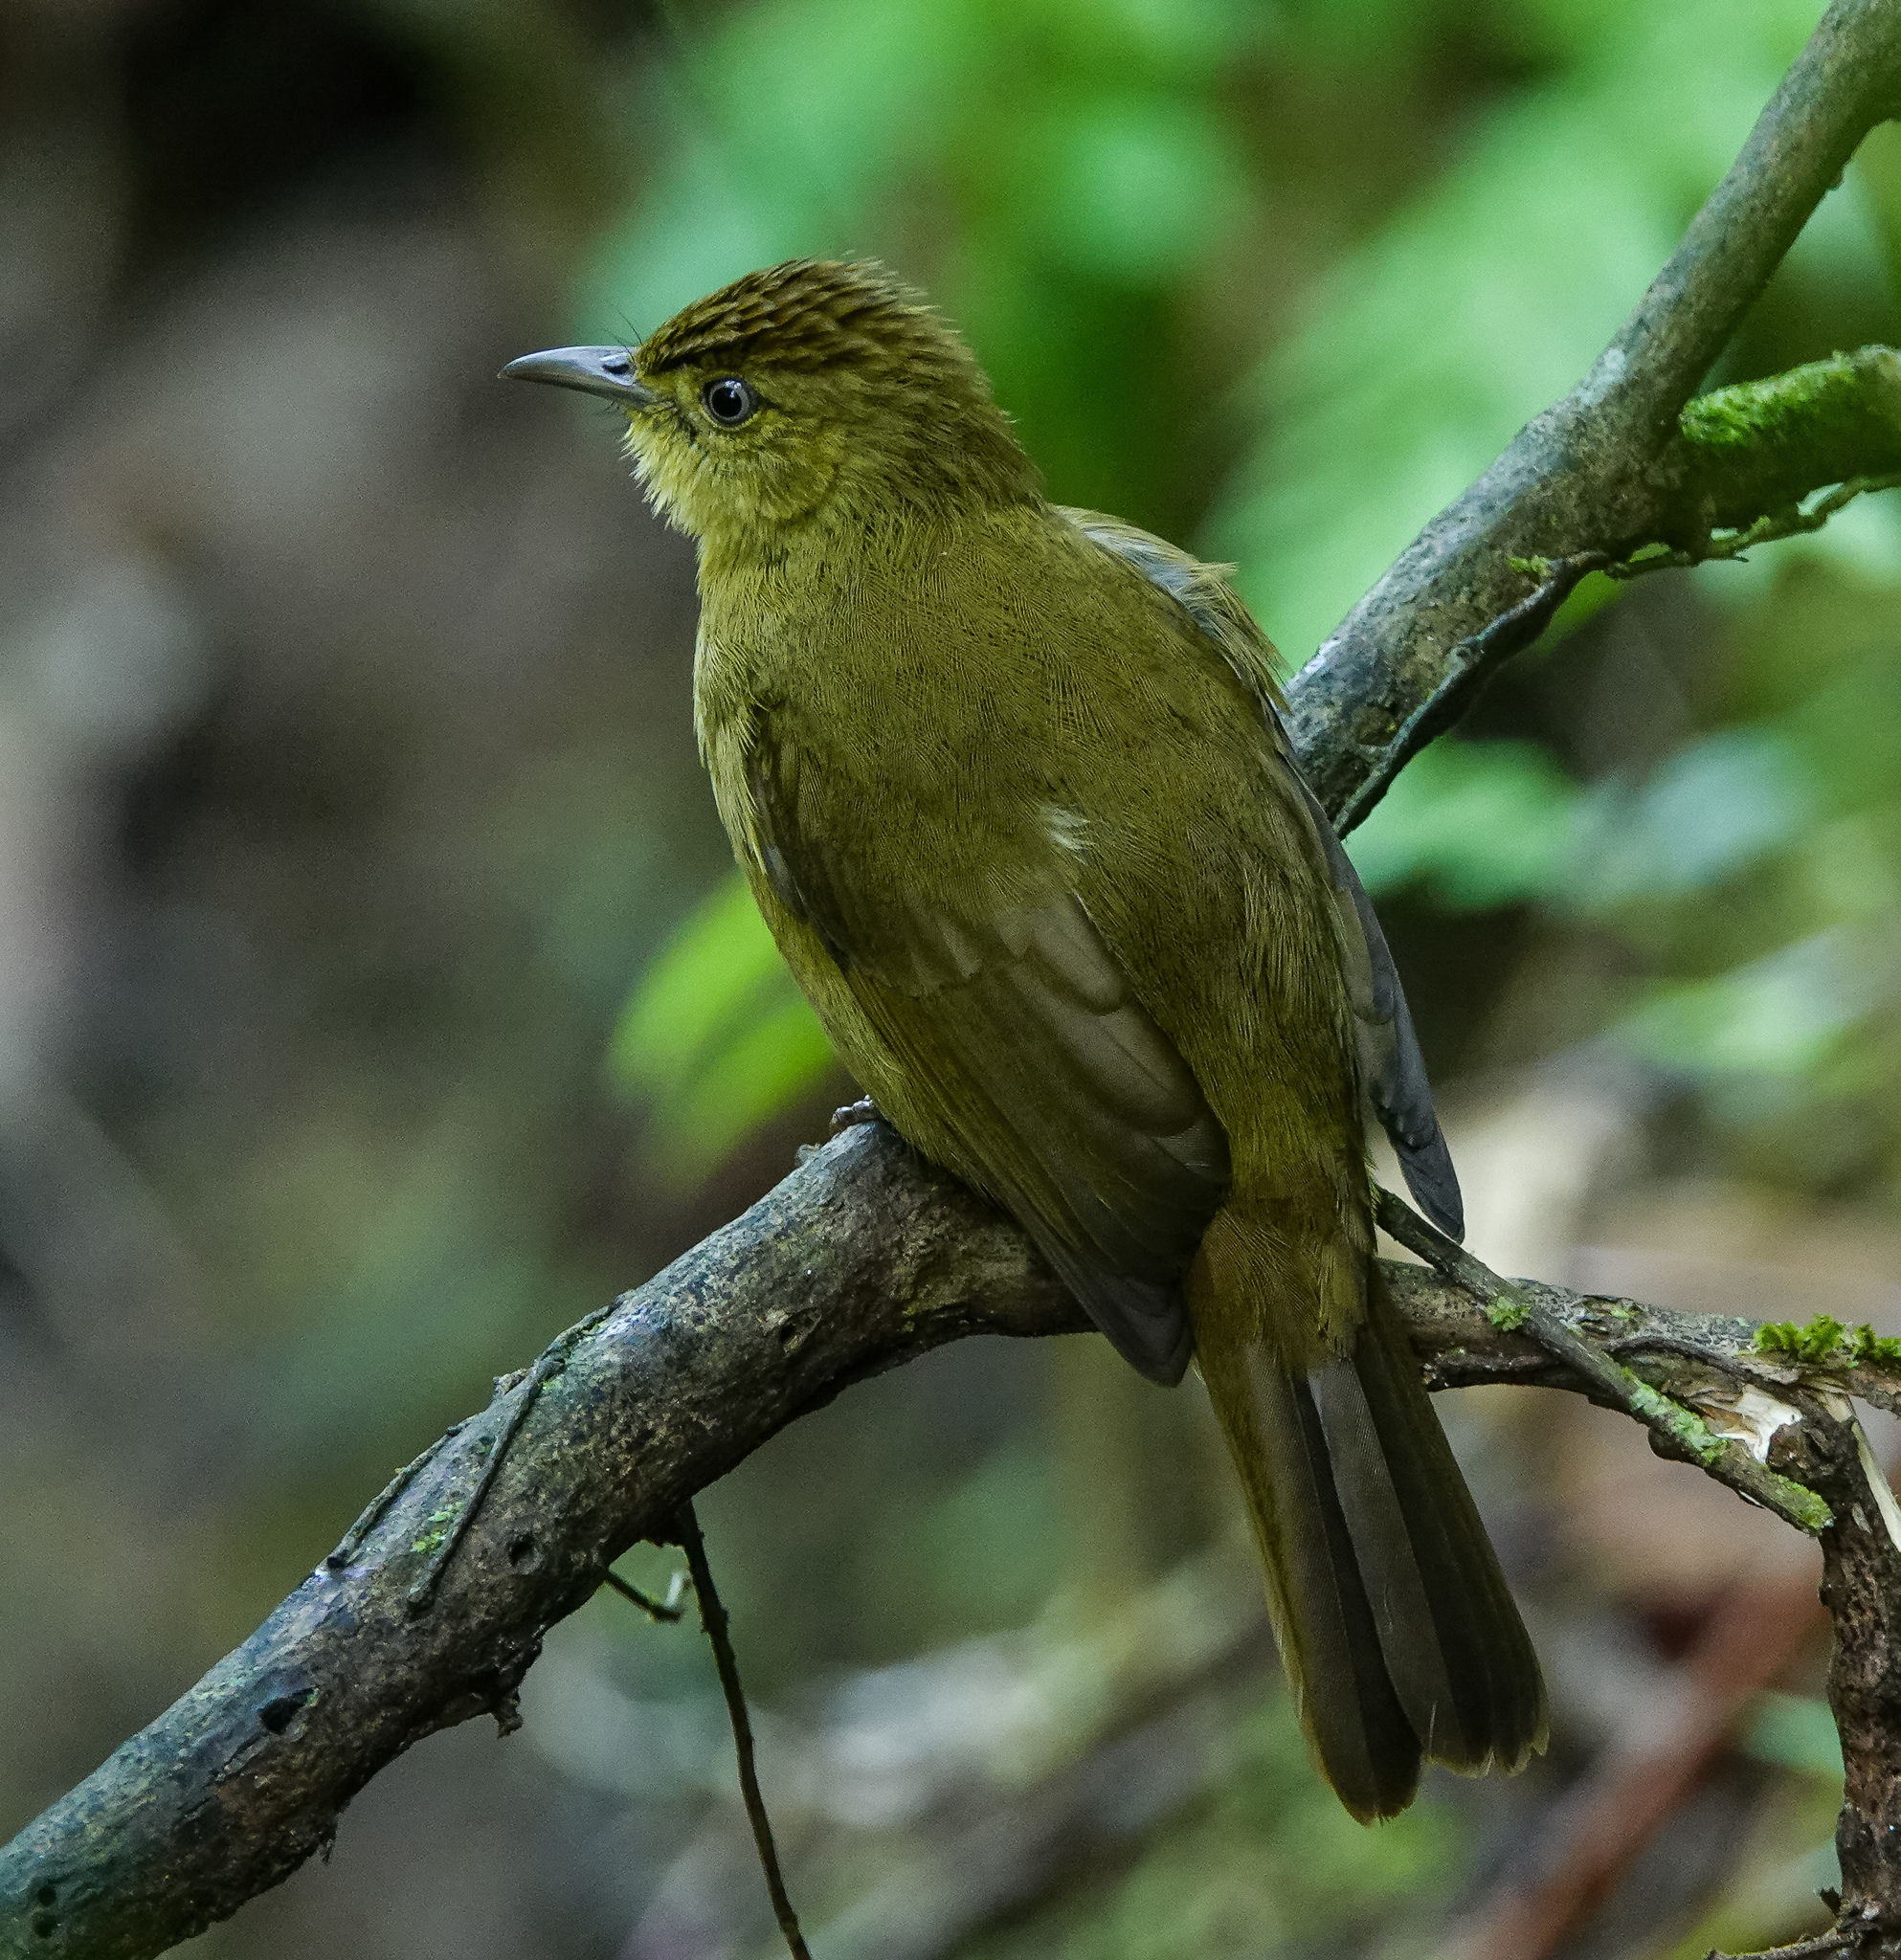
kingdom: Animalia
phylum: Chordata
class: Aves
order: Passeriformes
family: Pycnonotidae
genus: Iole
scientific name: Iole virescens
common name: Olive bulbul
